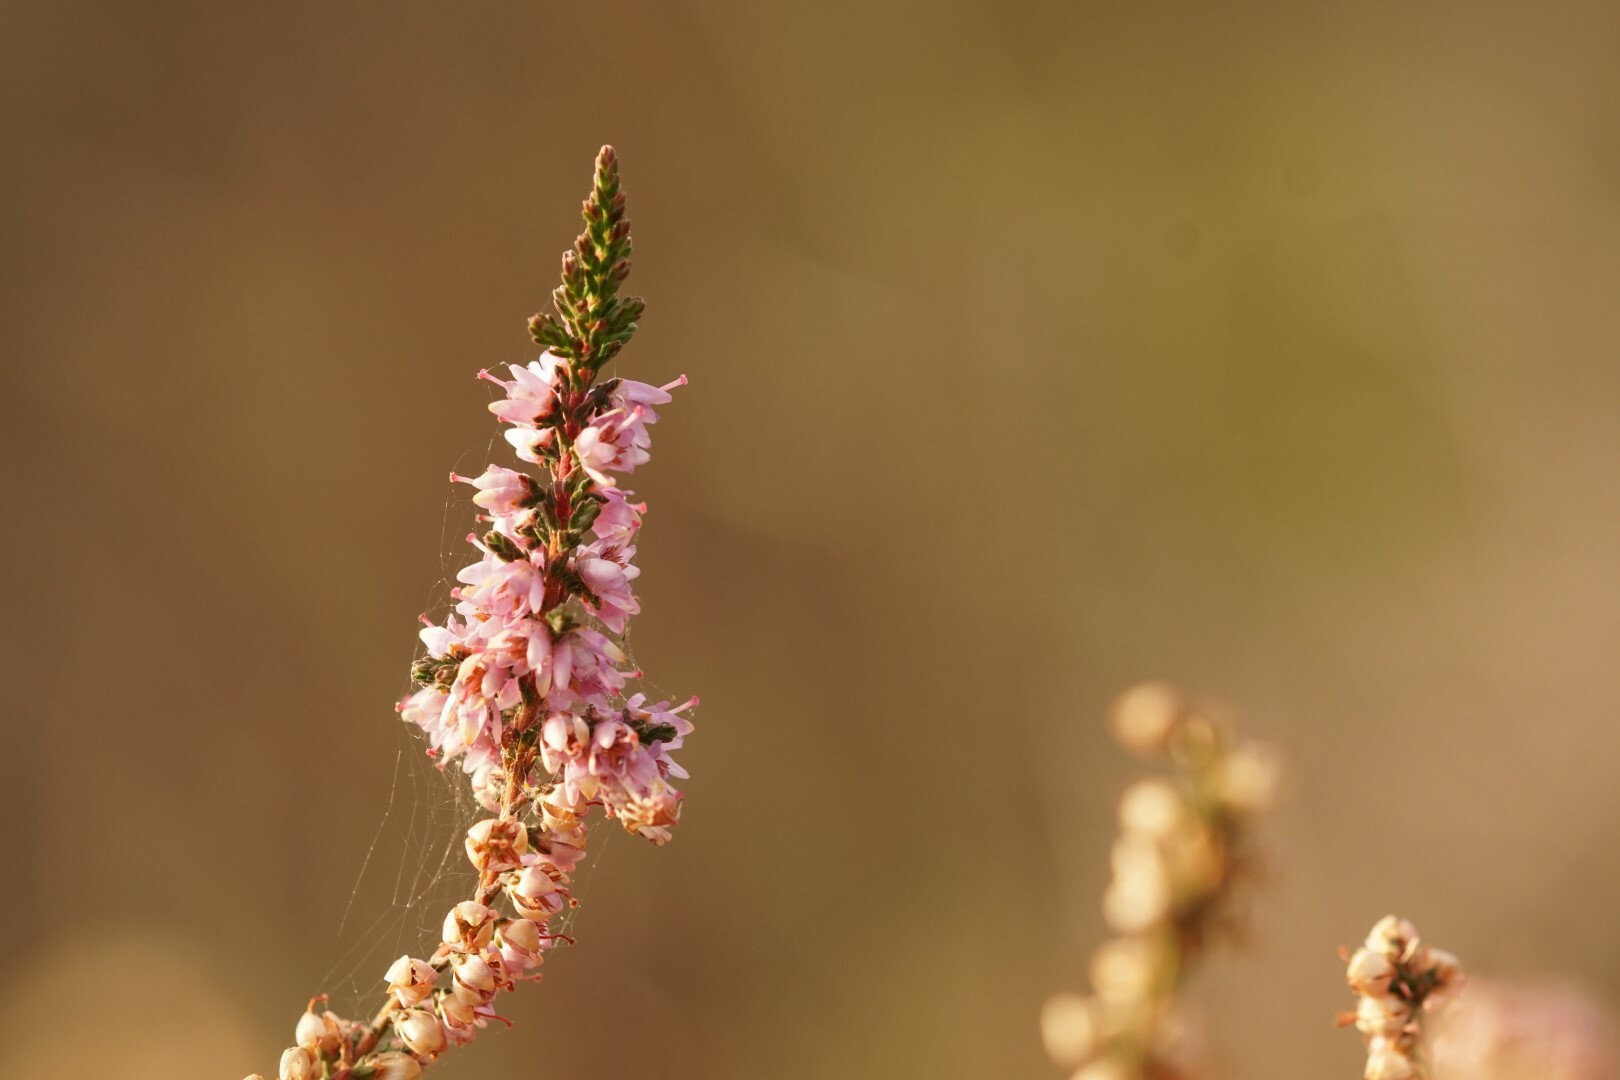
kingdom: Plantae
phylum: Tracheophyta
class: Magnoliopsida
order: Ericales
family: Ericaceae
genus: Calluna
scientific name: Calluna vulgaris
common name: Heather
